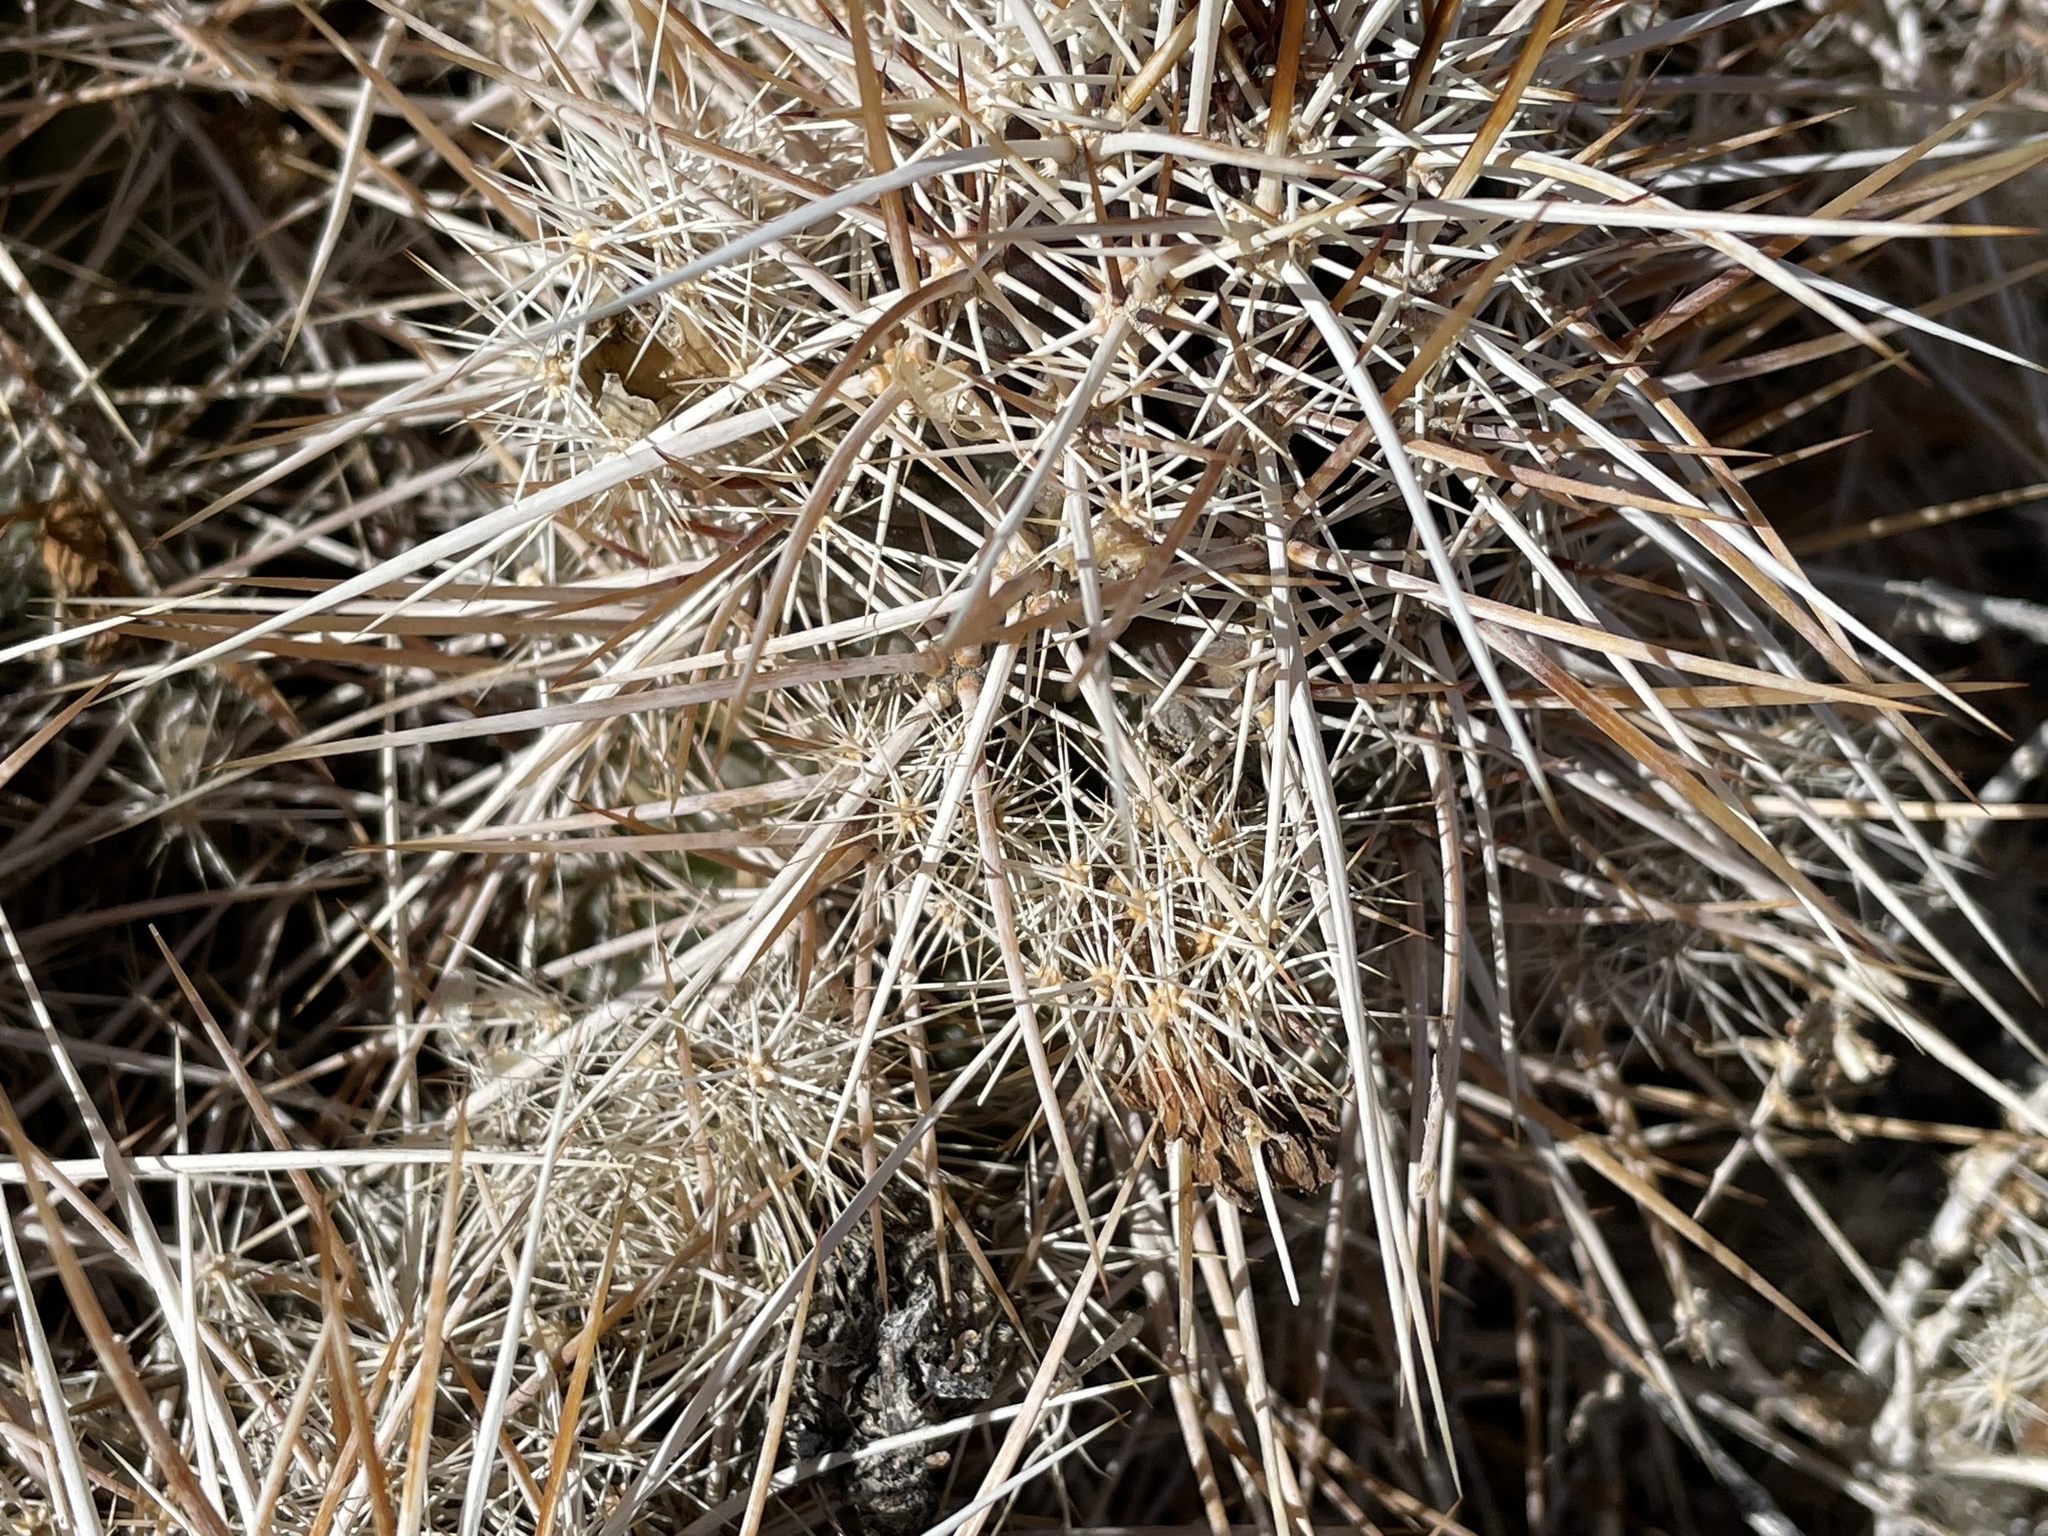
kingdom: Plantae
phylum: Tracheophyta
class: Magnoliopsida
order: Caryophyllales
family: Cactaceae
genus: Echinocereus
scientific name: Echinocereus engelmannii
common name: Engelmann's hedgehog cactus
